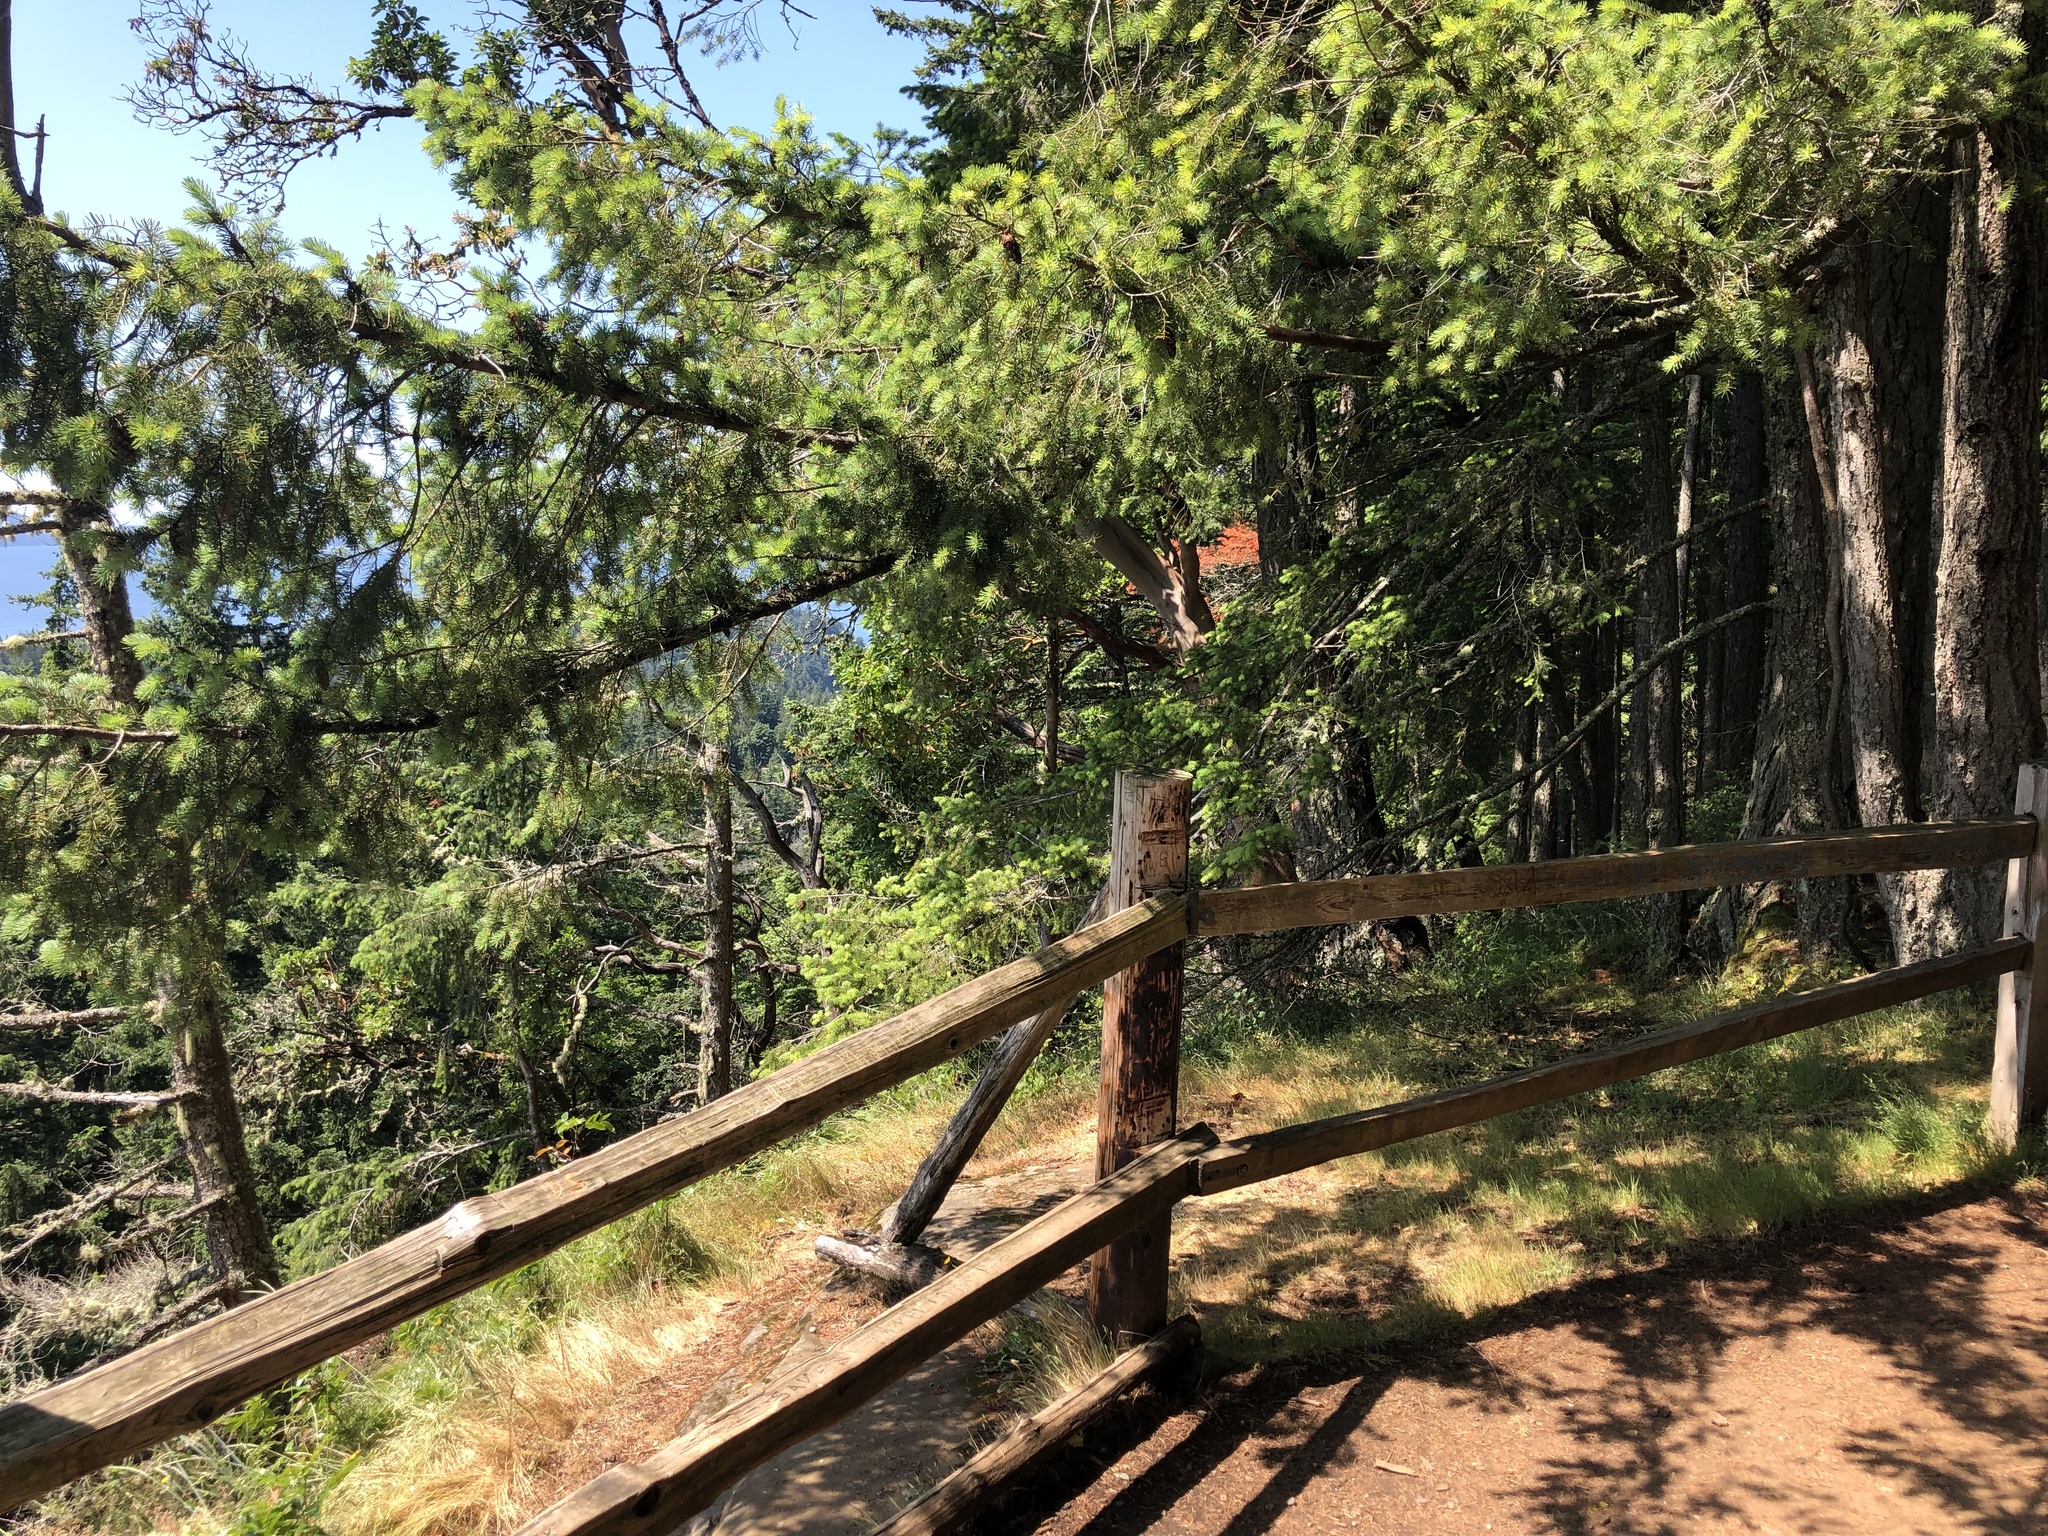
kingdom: Plantae
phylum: Tracheophyta
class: Pinopsida
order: Pinales
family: Pinaceae
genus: Pseudotsuga
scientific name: Pseudotsuga menziesii
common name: Douglas fir
